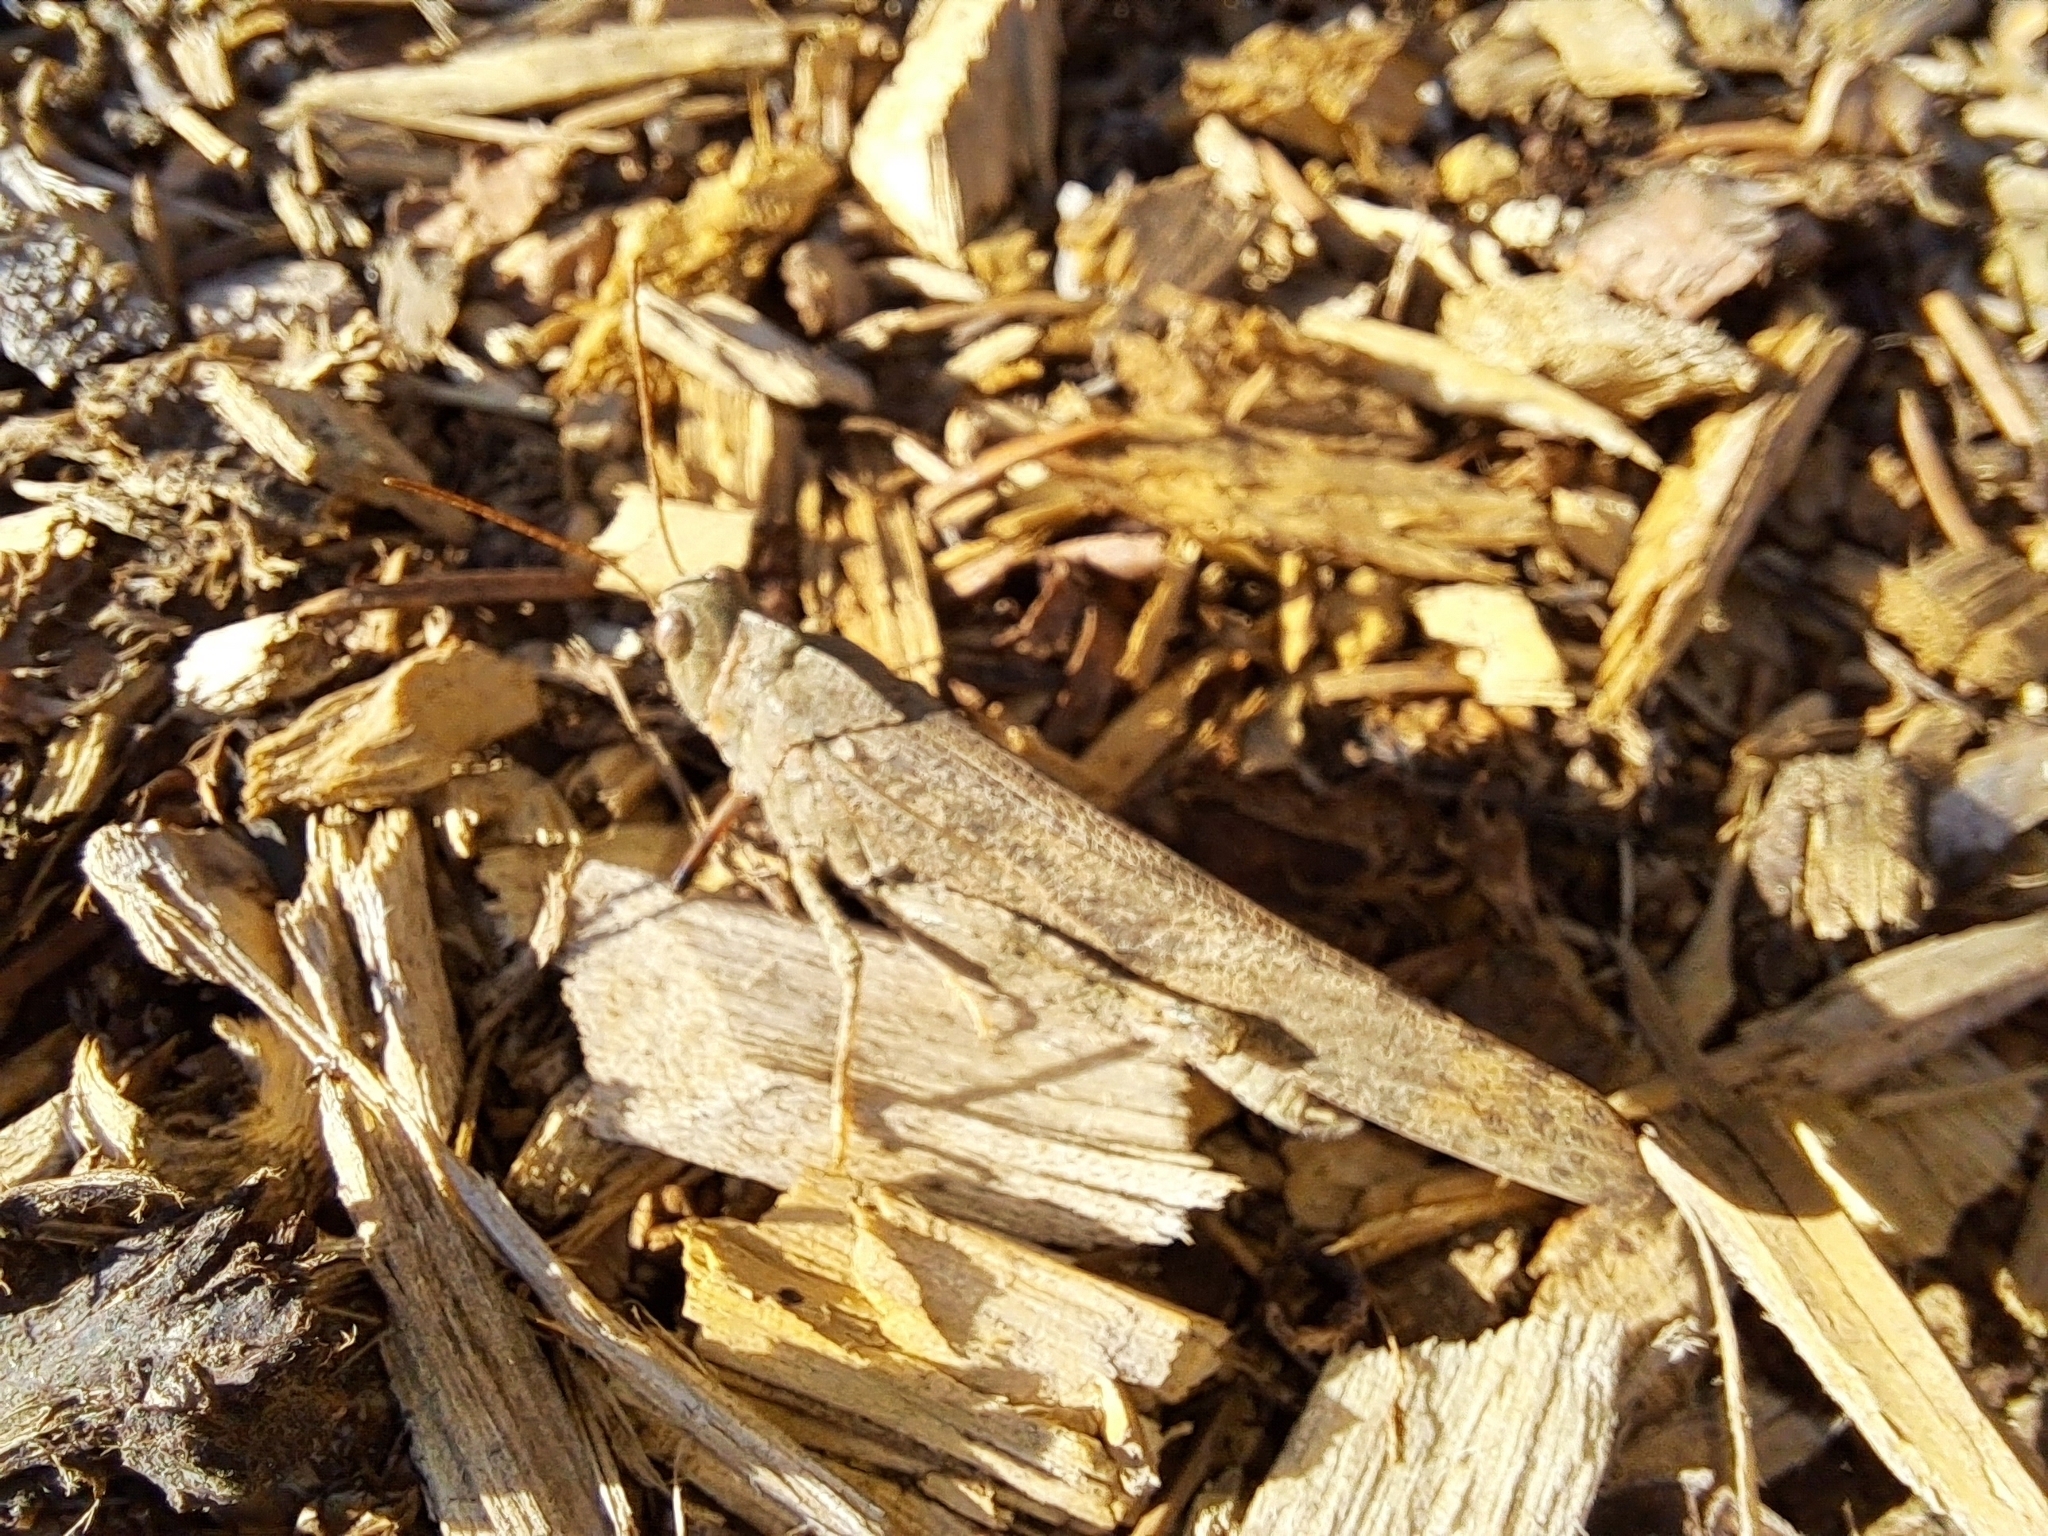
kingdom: Animalia
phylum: Arthropoda
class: Insecta
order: Orthoptera
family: Acrididae
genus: Dissosteira
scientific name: Dissosteira carolina
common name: Carolina grasshopper
